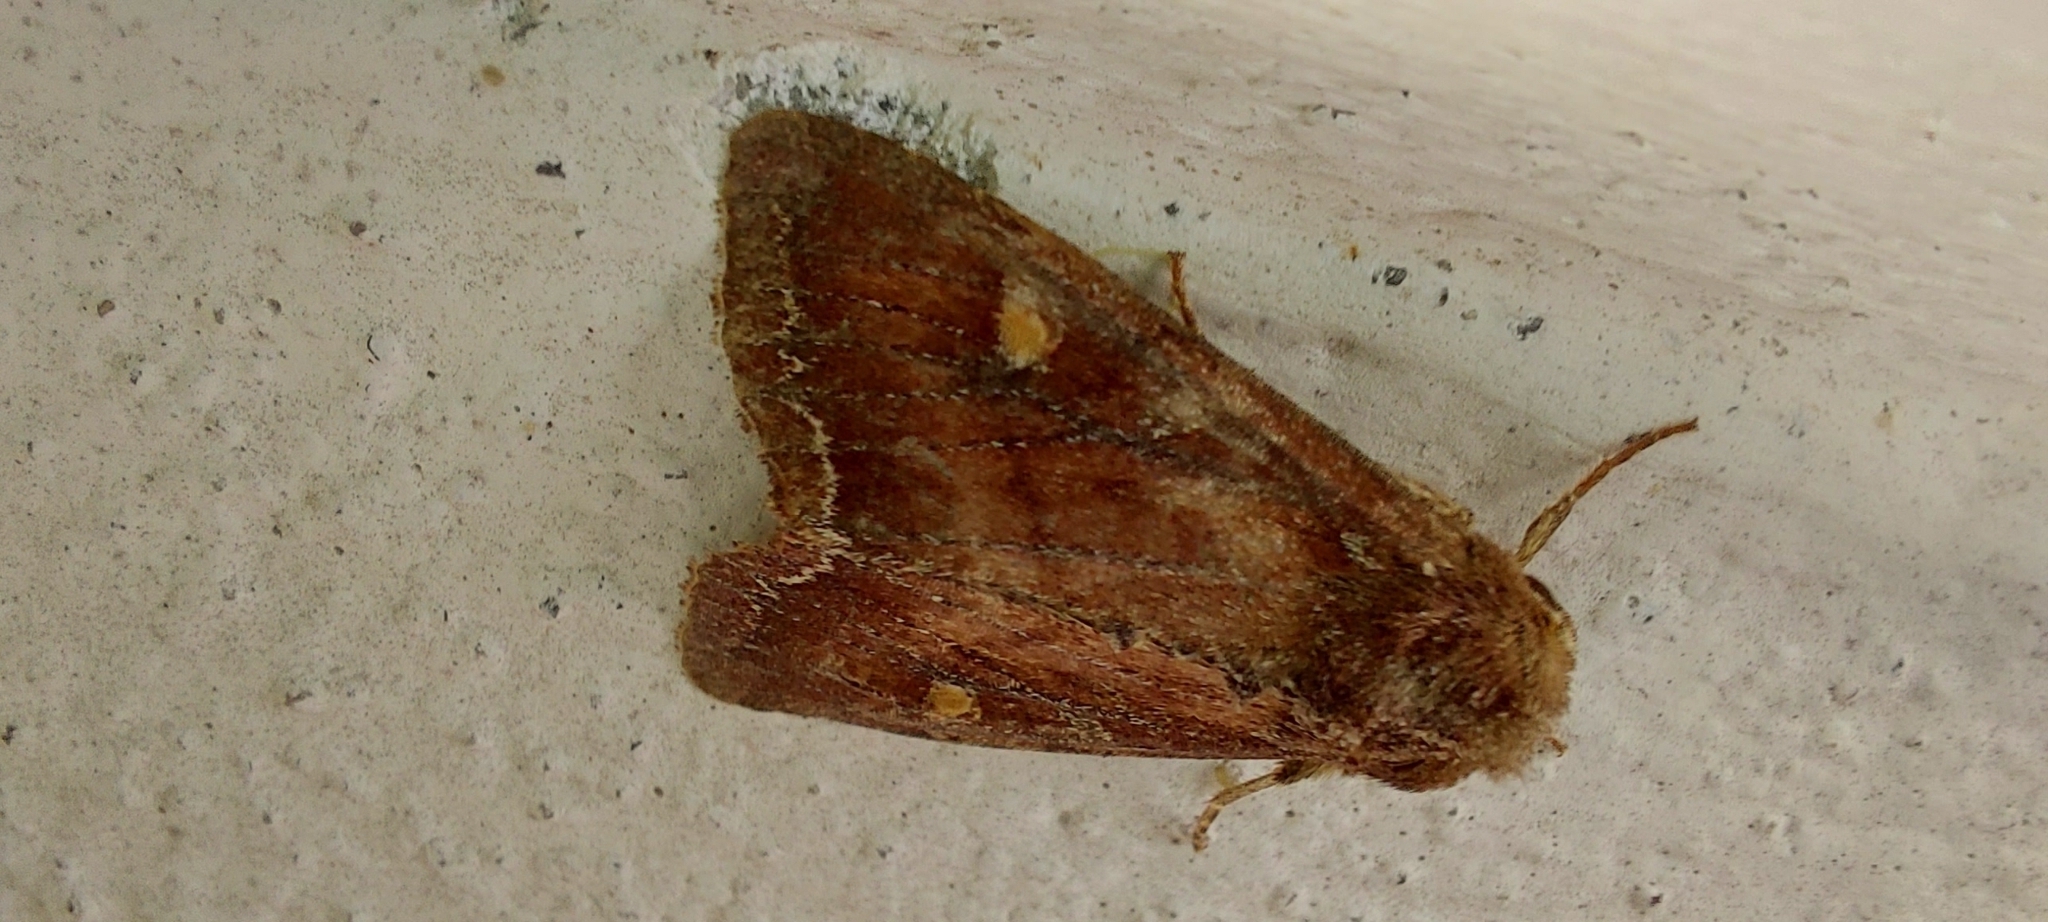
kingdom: Animalia
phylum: Arthropoda
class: Insecta
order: Lepidoptera
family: Noctuidae
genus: Lacanobia
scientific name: Lacanobia oleracea
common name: Bright-line brown-eye
